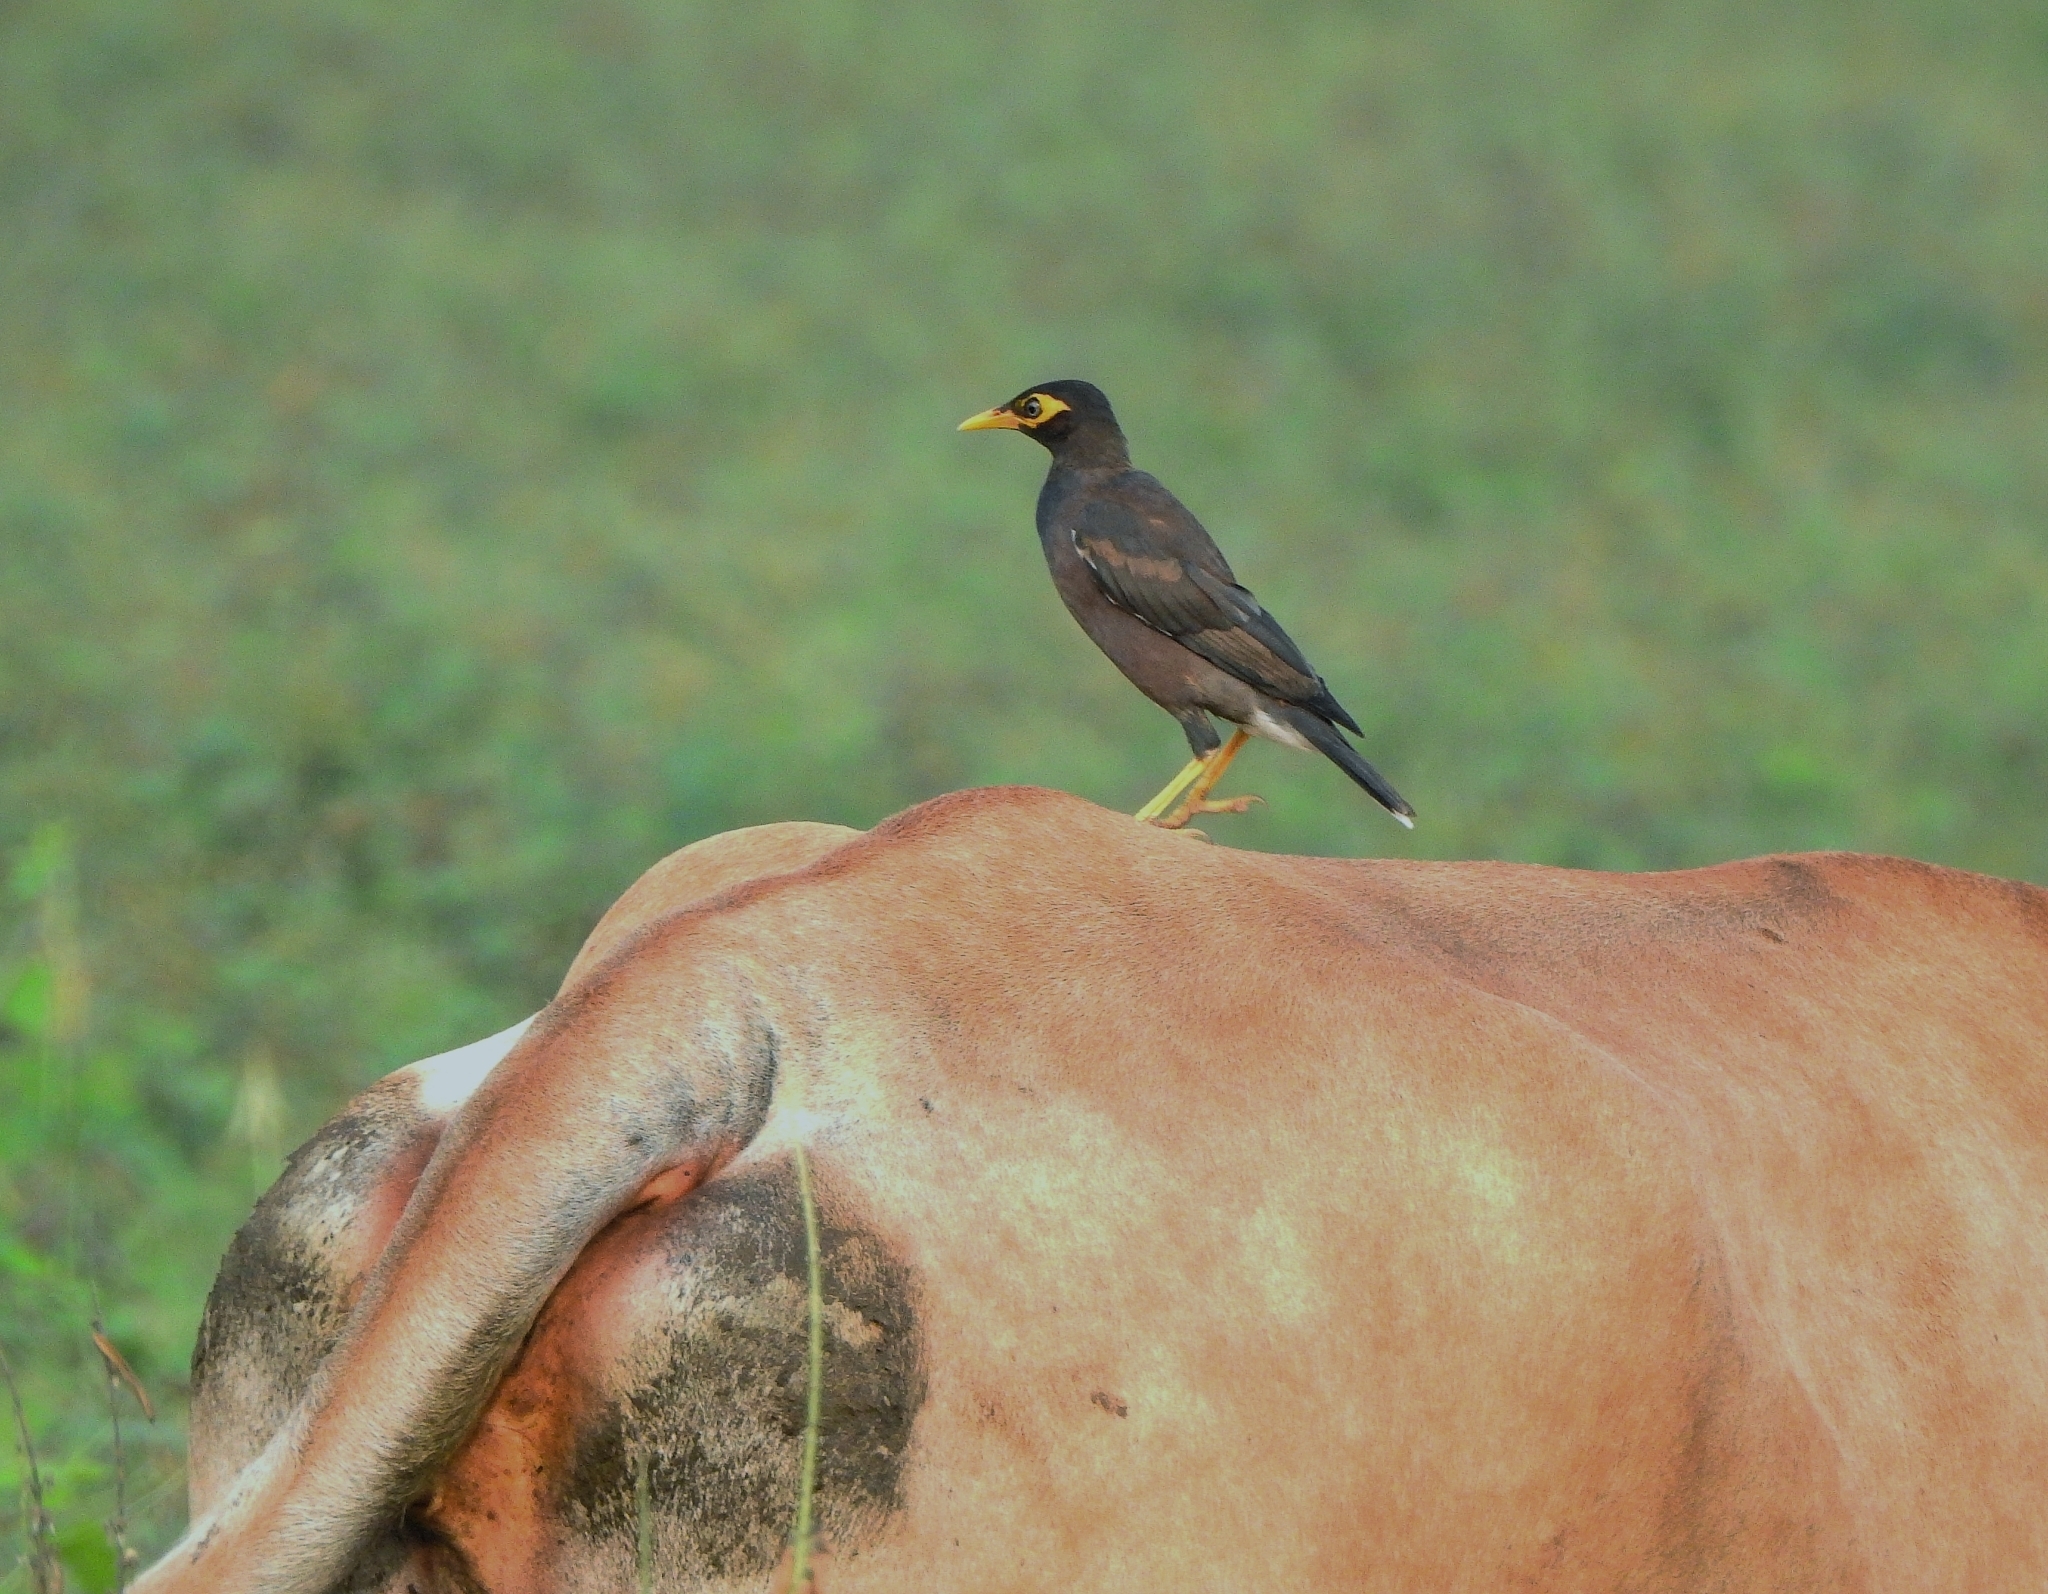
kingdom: Animalia
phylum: Chordata
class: Aves
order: Passeriformes
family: Sturnidae
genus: Acridotheres
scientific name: Acridotheres tristis
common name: Common myna
